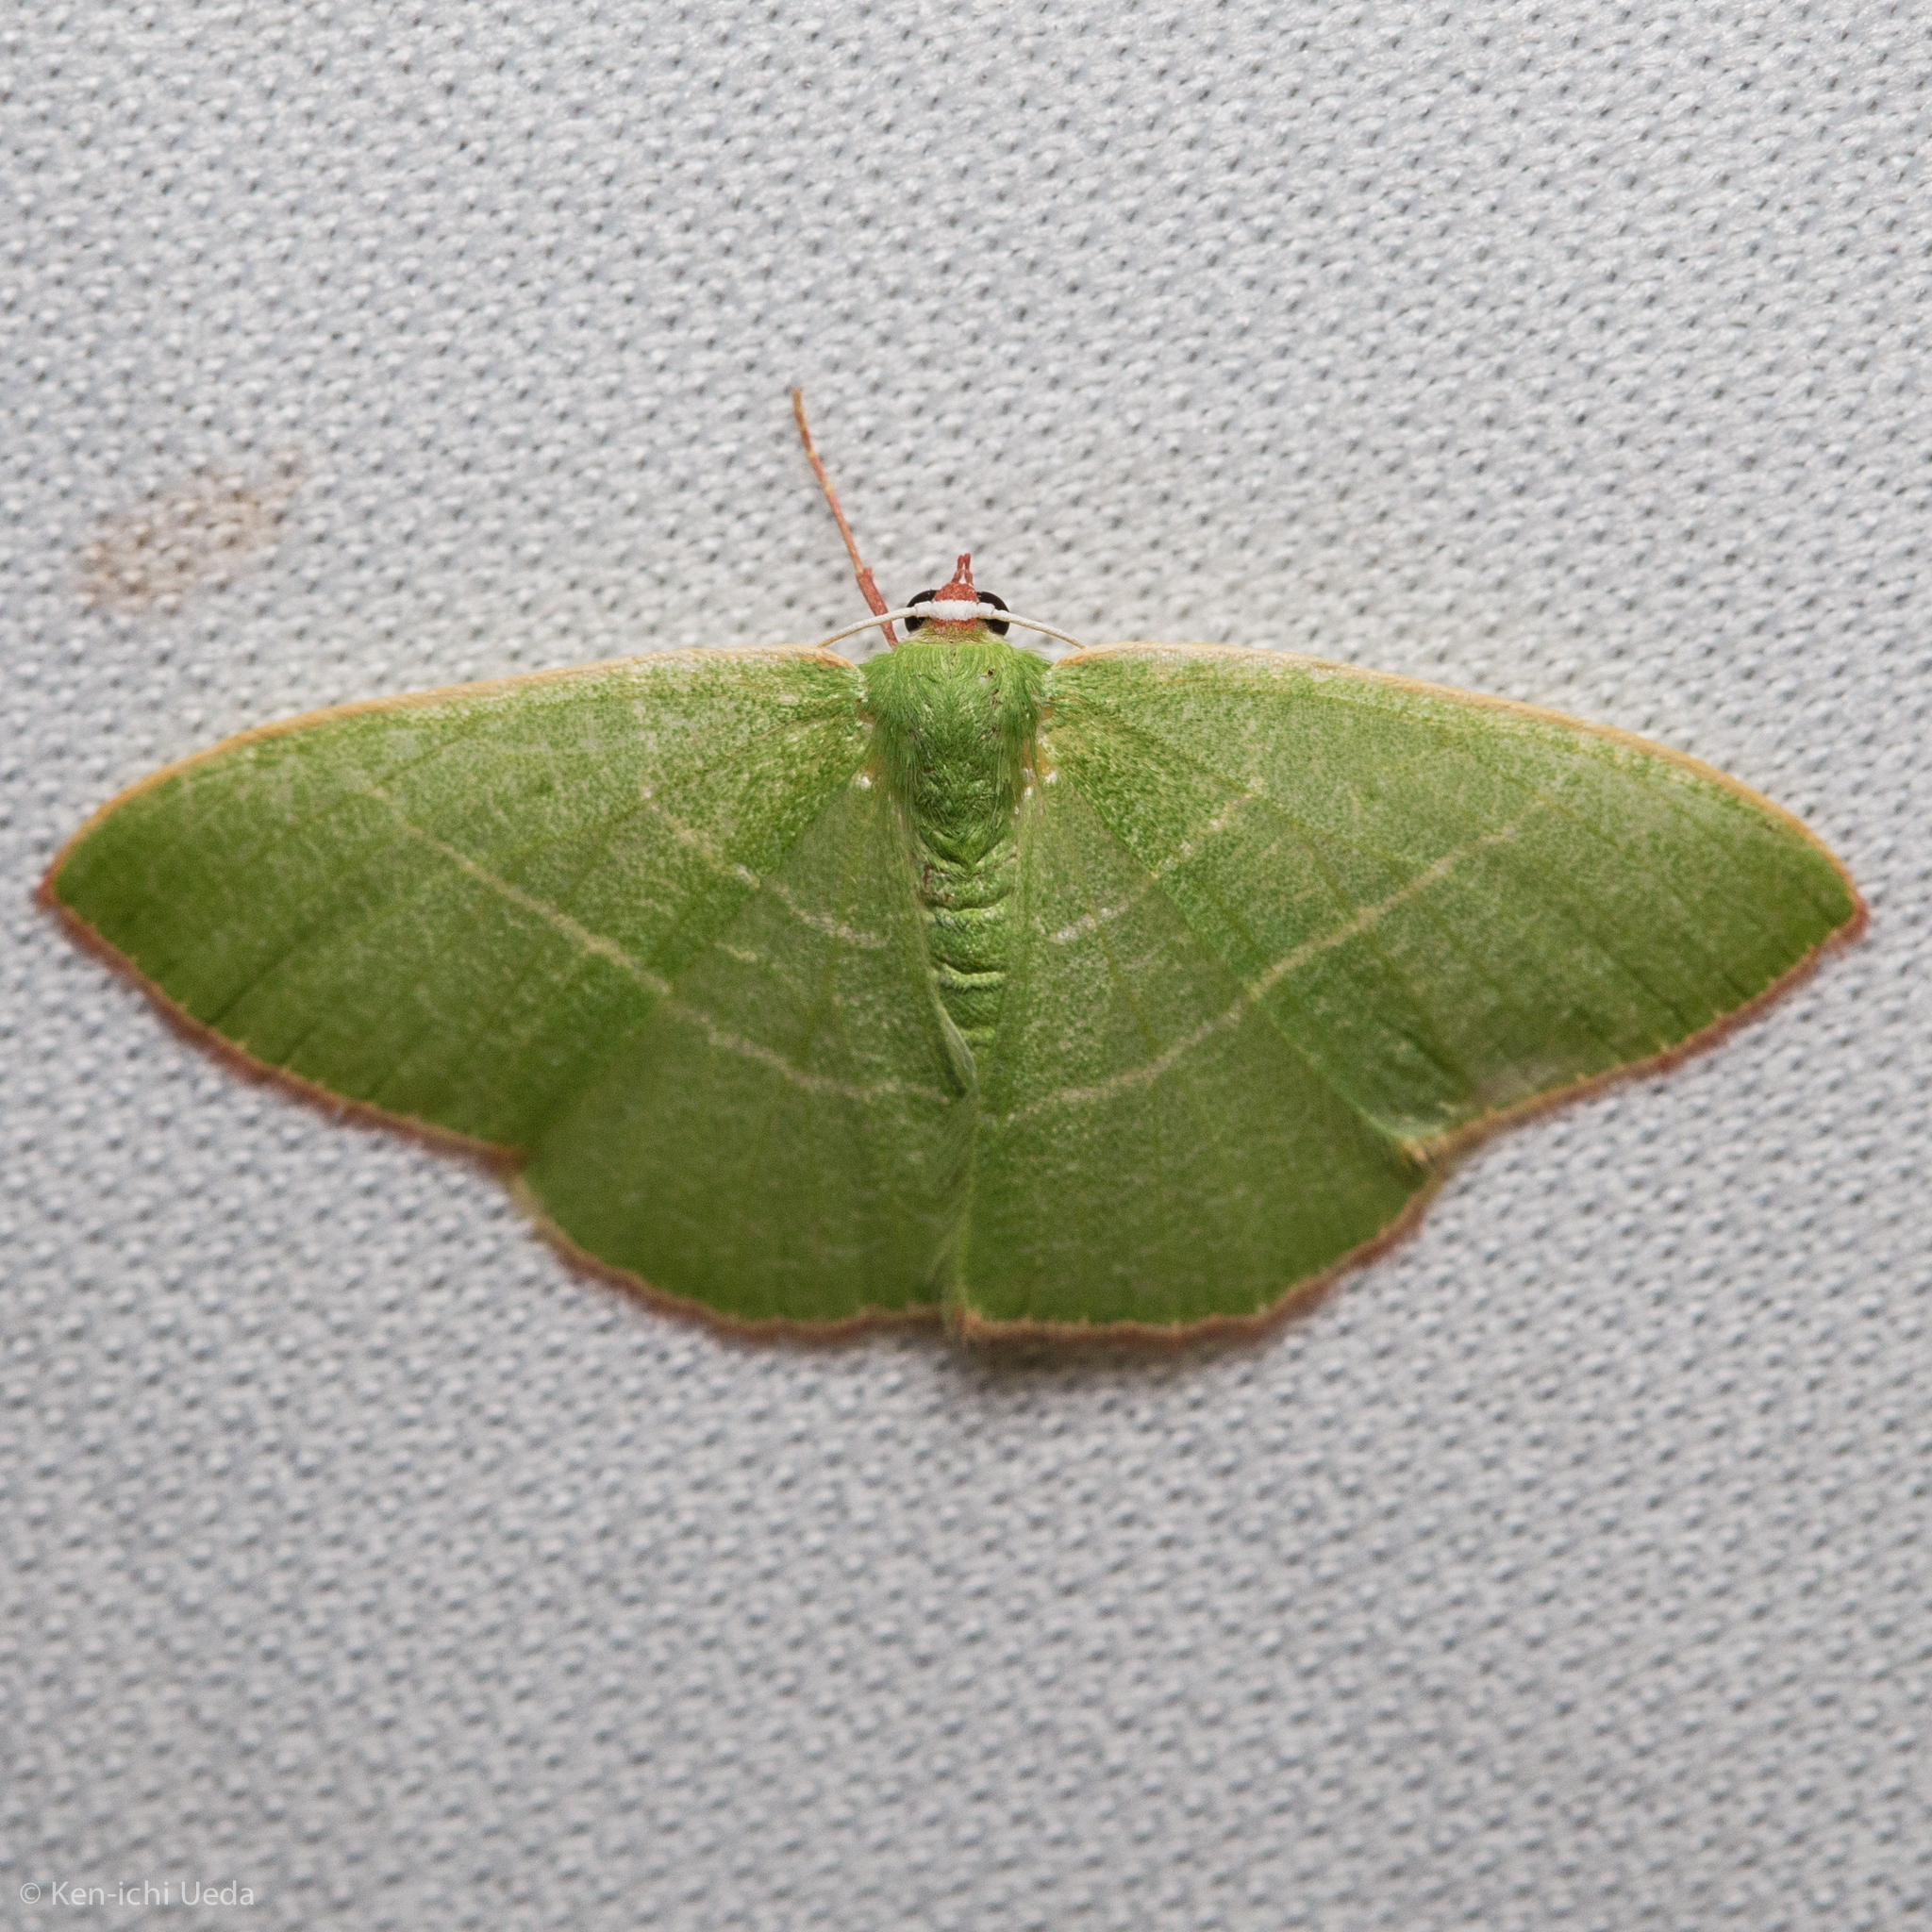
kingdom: Animalia
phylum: Arthropoda
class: Insecta
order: Lepidoptera
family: Geometridae
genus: Nemoria
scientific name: Nemoria leptalea
